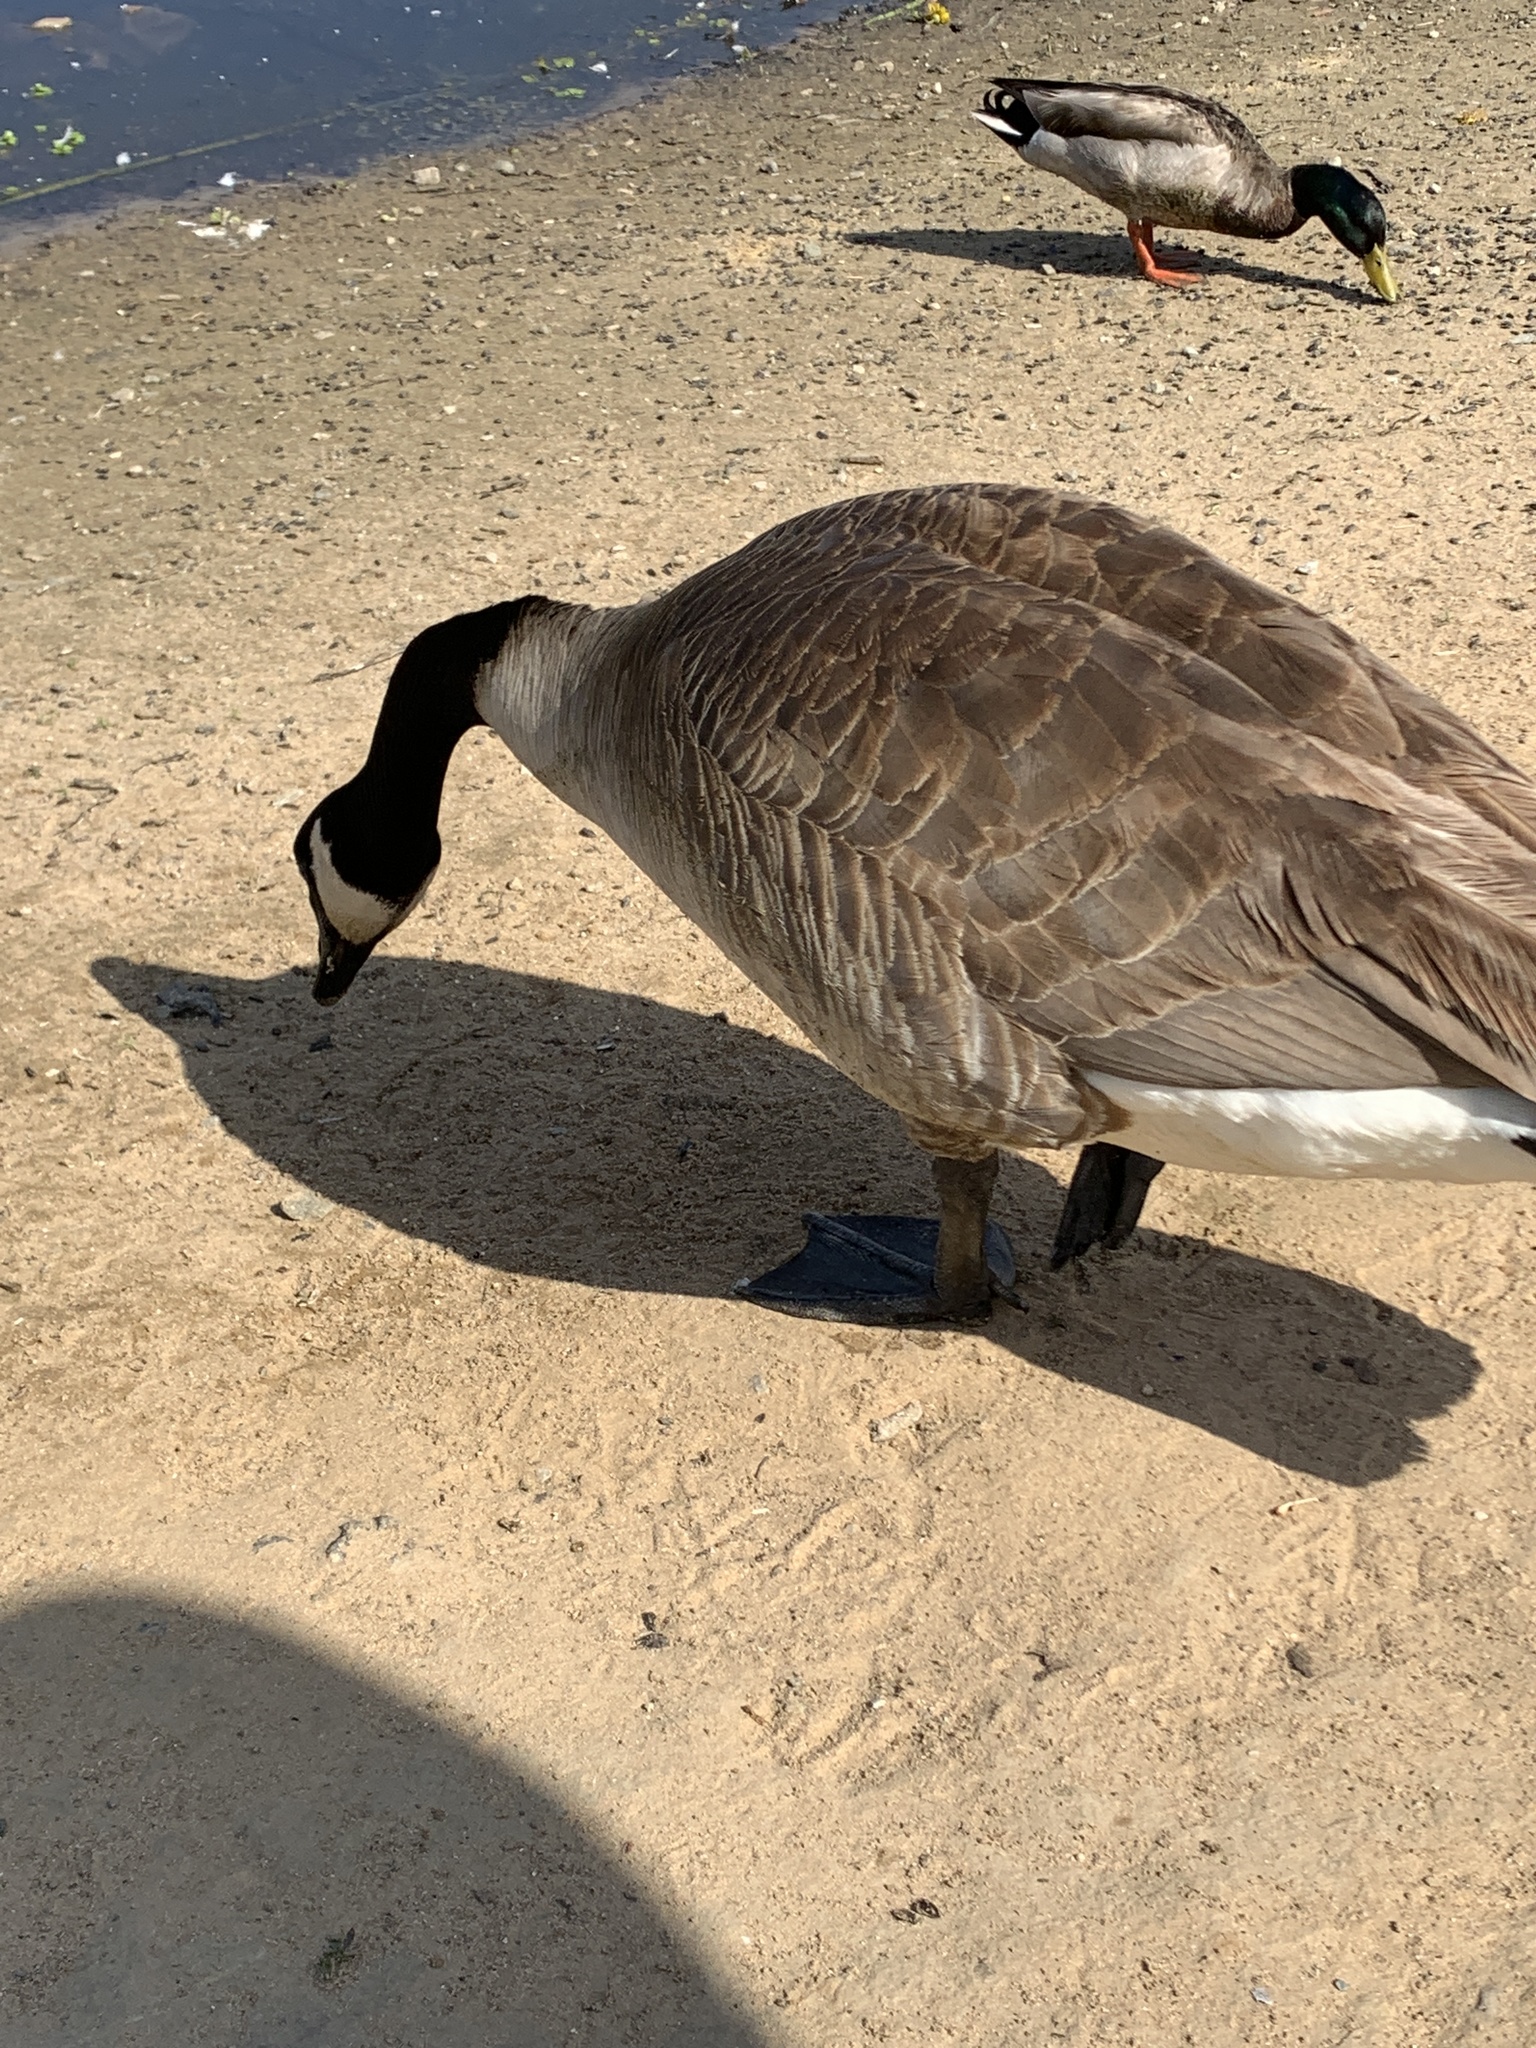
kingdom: Animalia
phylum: Chordata
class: Aves
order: Anseriformes
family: Anatidae
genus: Branta
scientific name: Branta canadensis
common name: Canada goose
